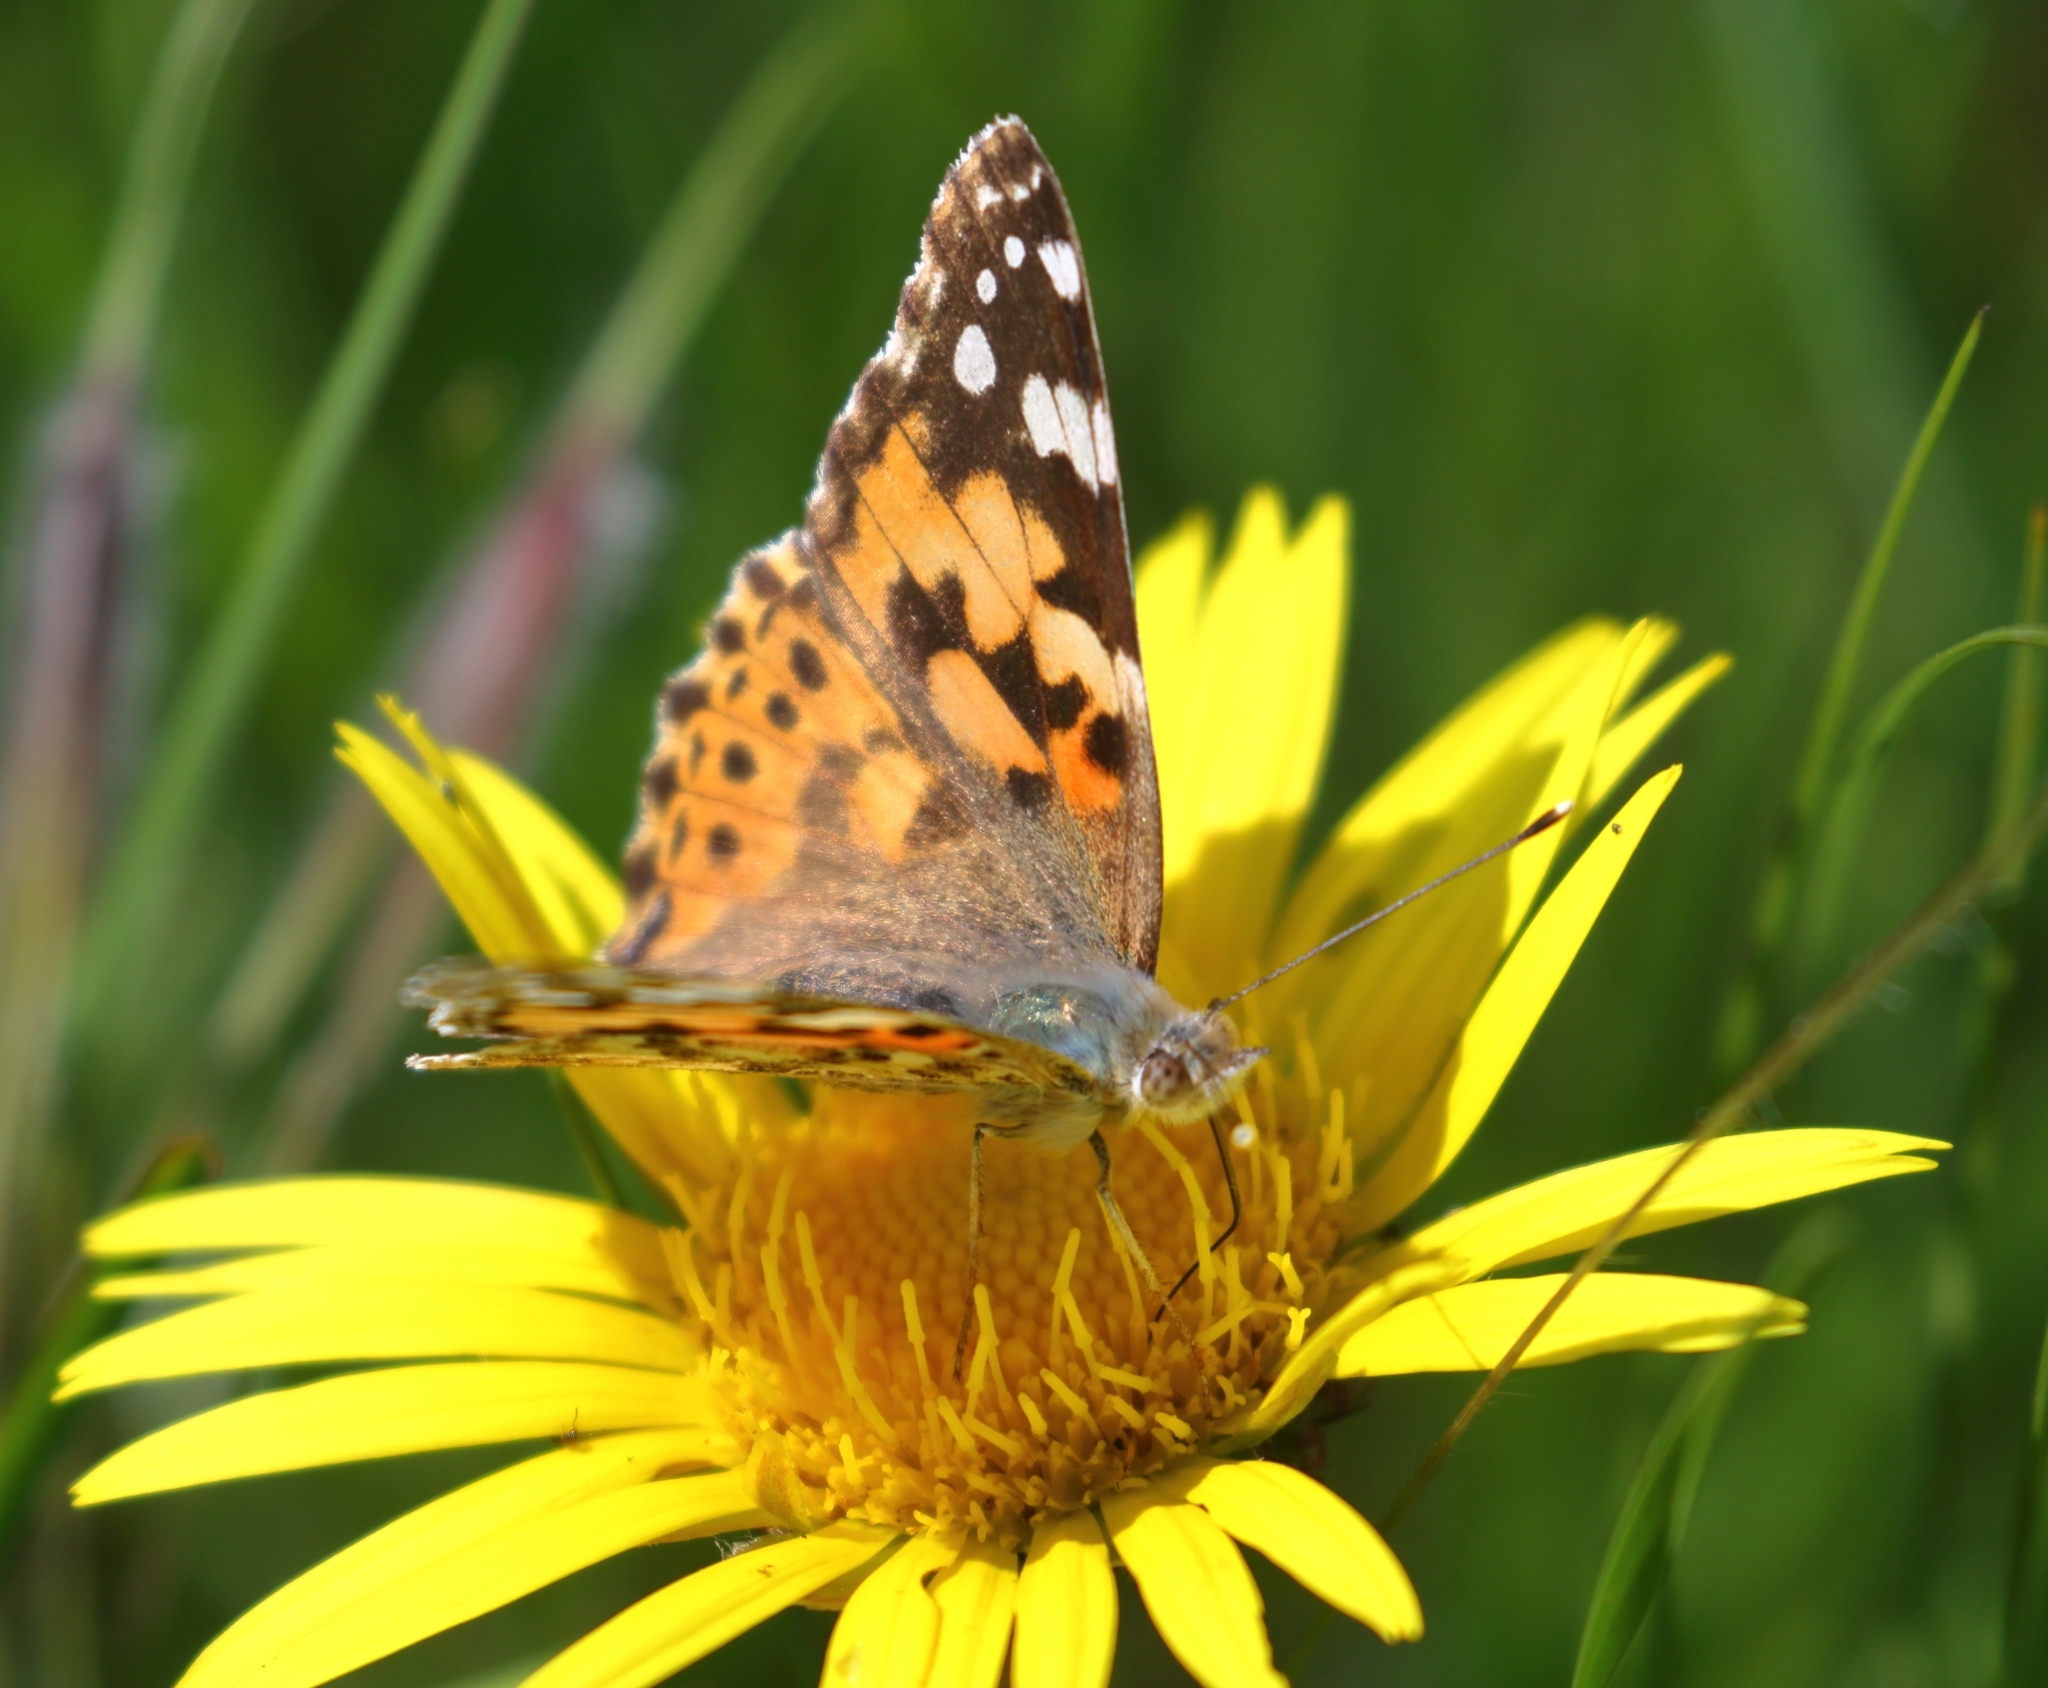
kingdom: Animalia
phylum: Arthropoda
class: Insecta
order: Lepidoptera
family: Nymphalidae
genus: Vanessa
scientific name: Vanessa cardui
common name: Painted lady
